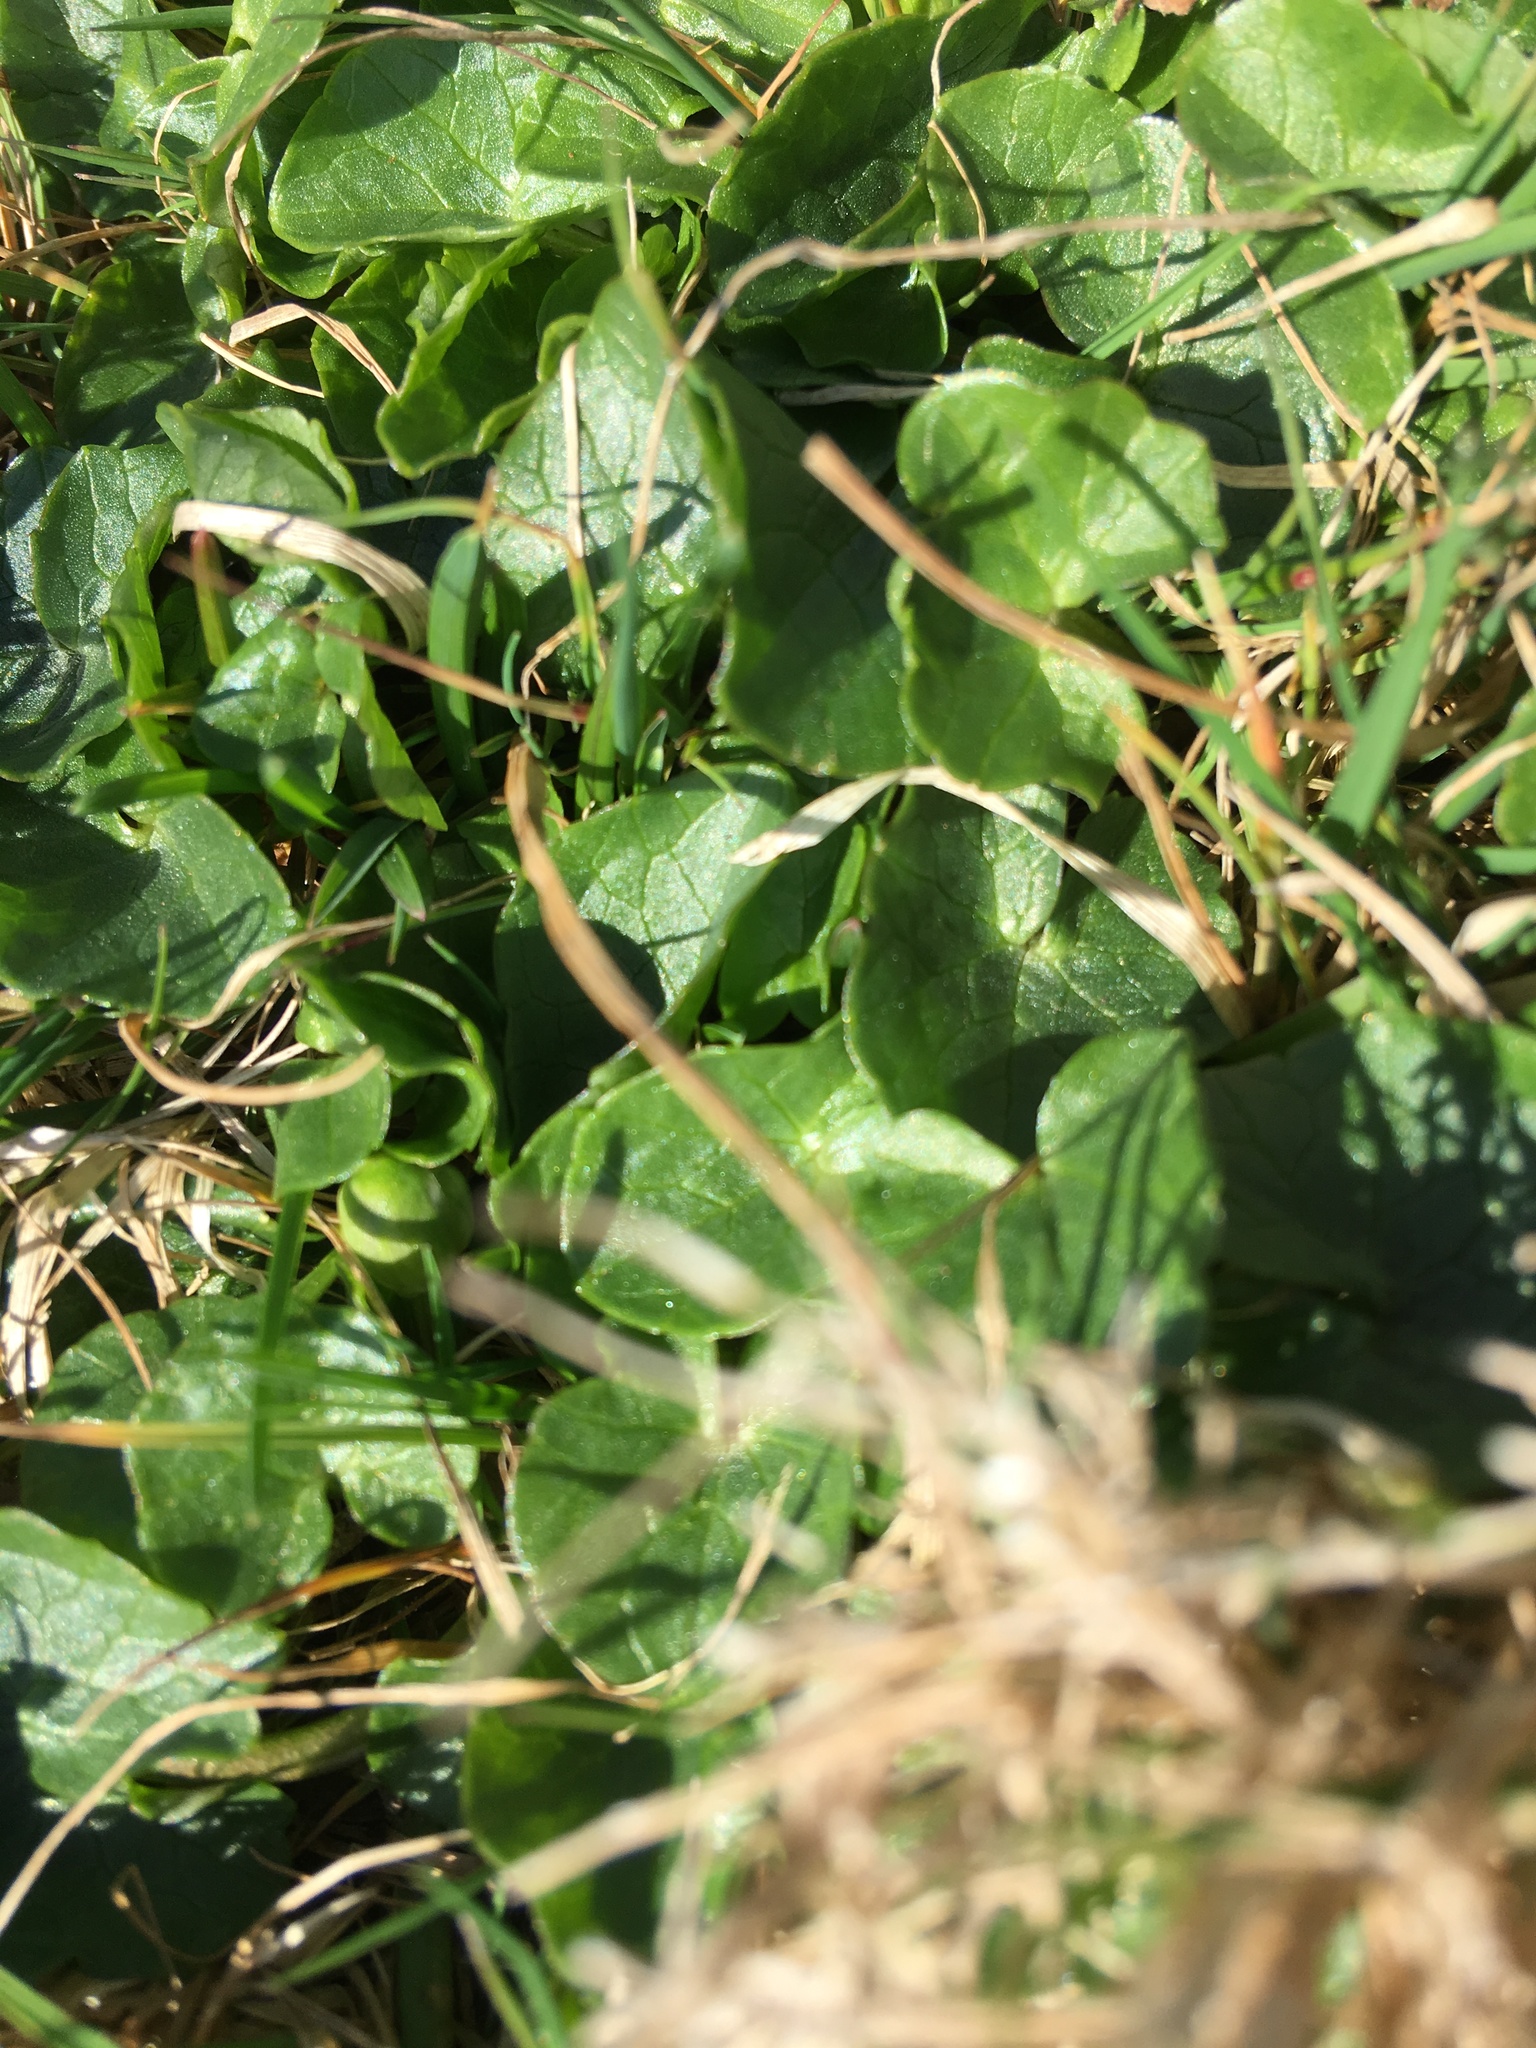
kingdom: Plantae
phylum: Tracheophyta
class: Magnoliopsida
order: Ranunculales
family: Ranunculaceae
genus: Ficaria
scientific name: Ficaria verna
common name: Lesser celandine
